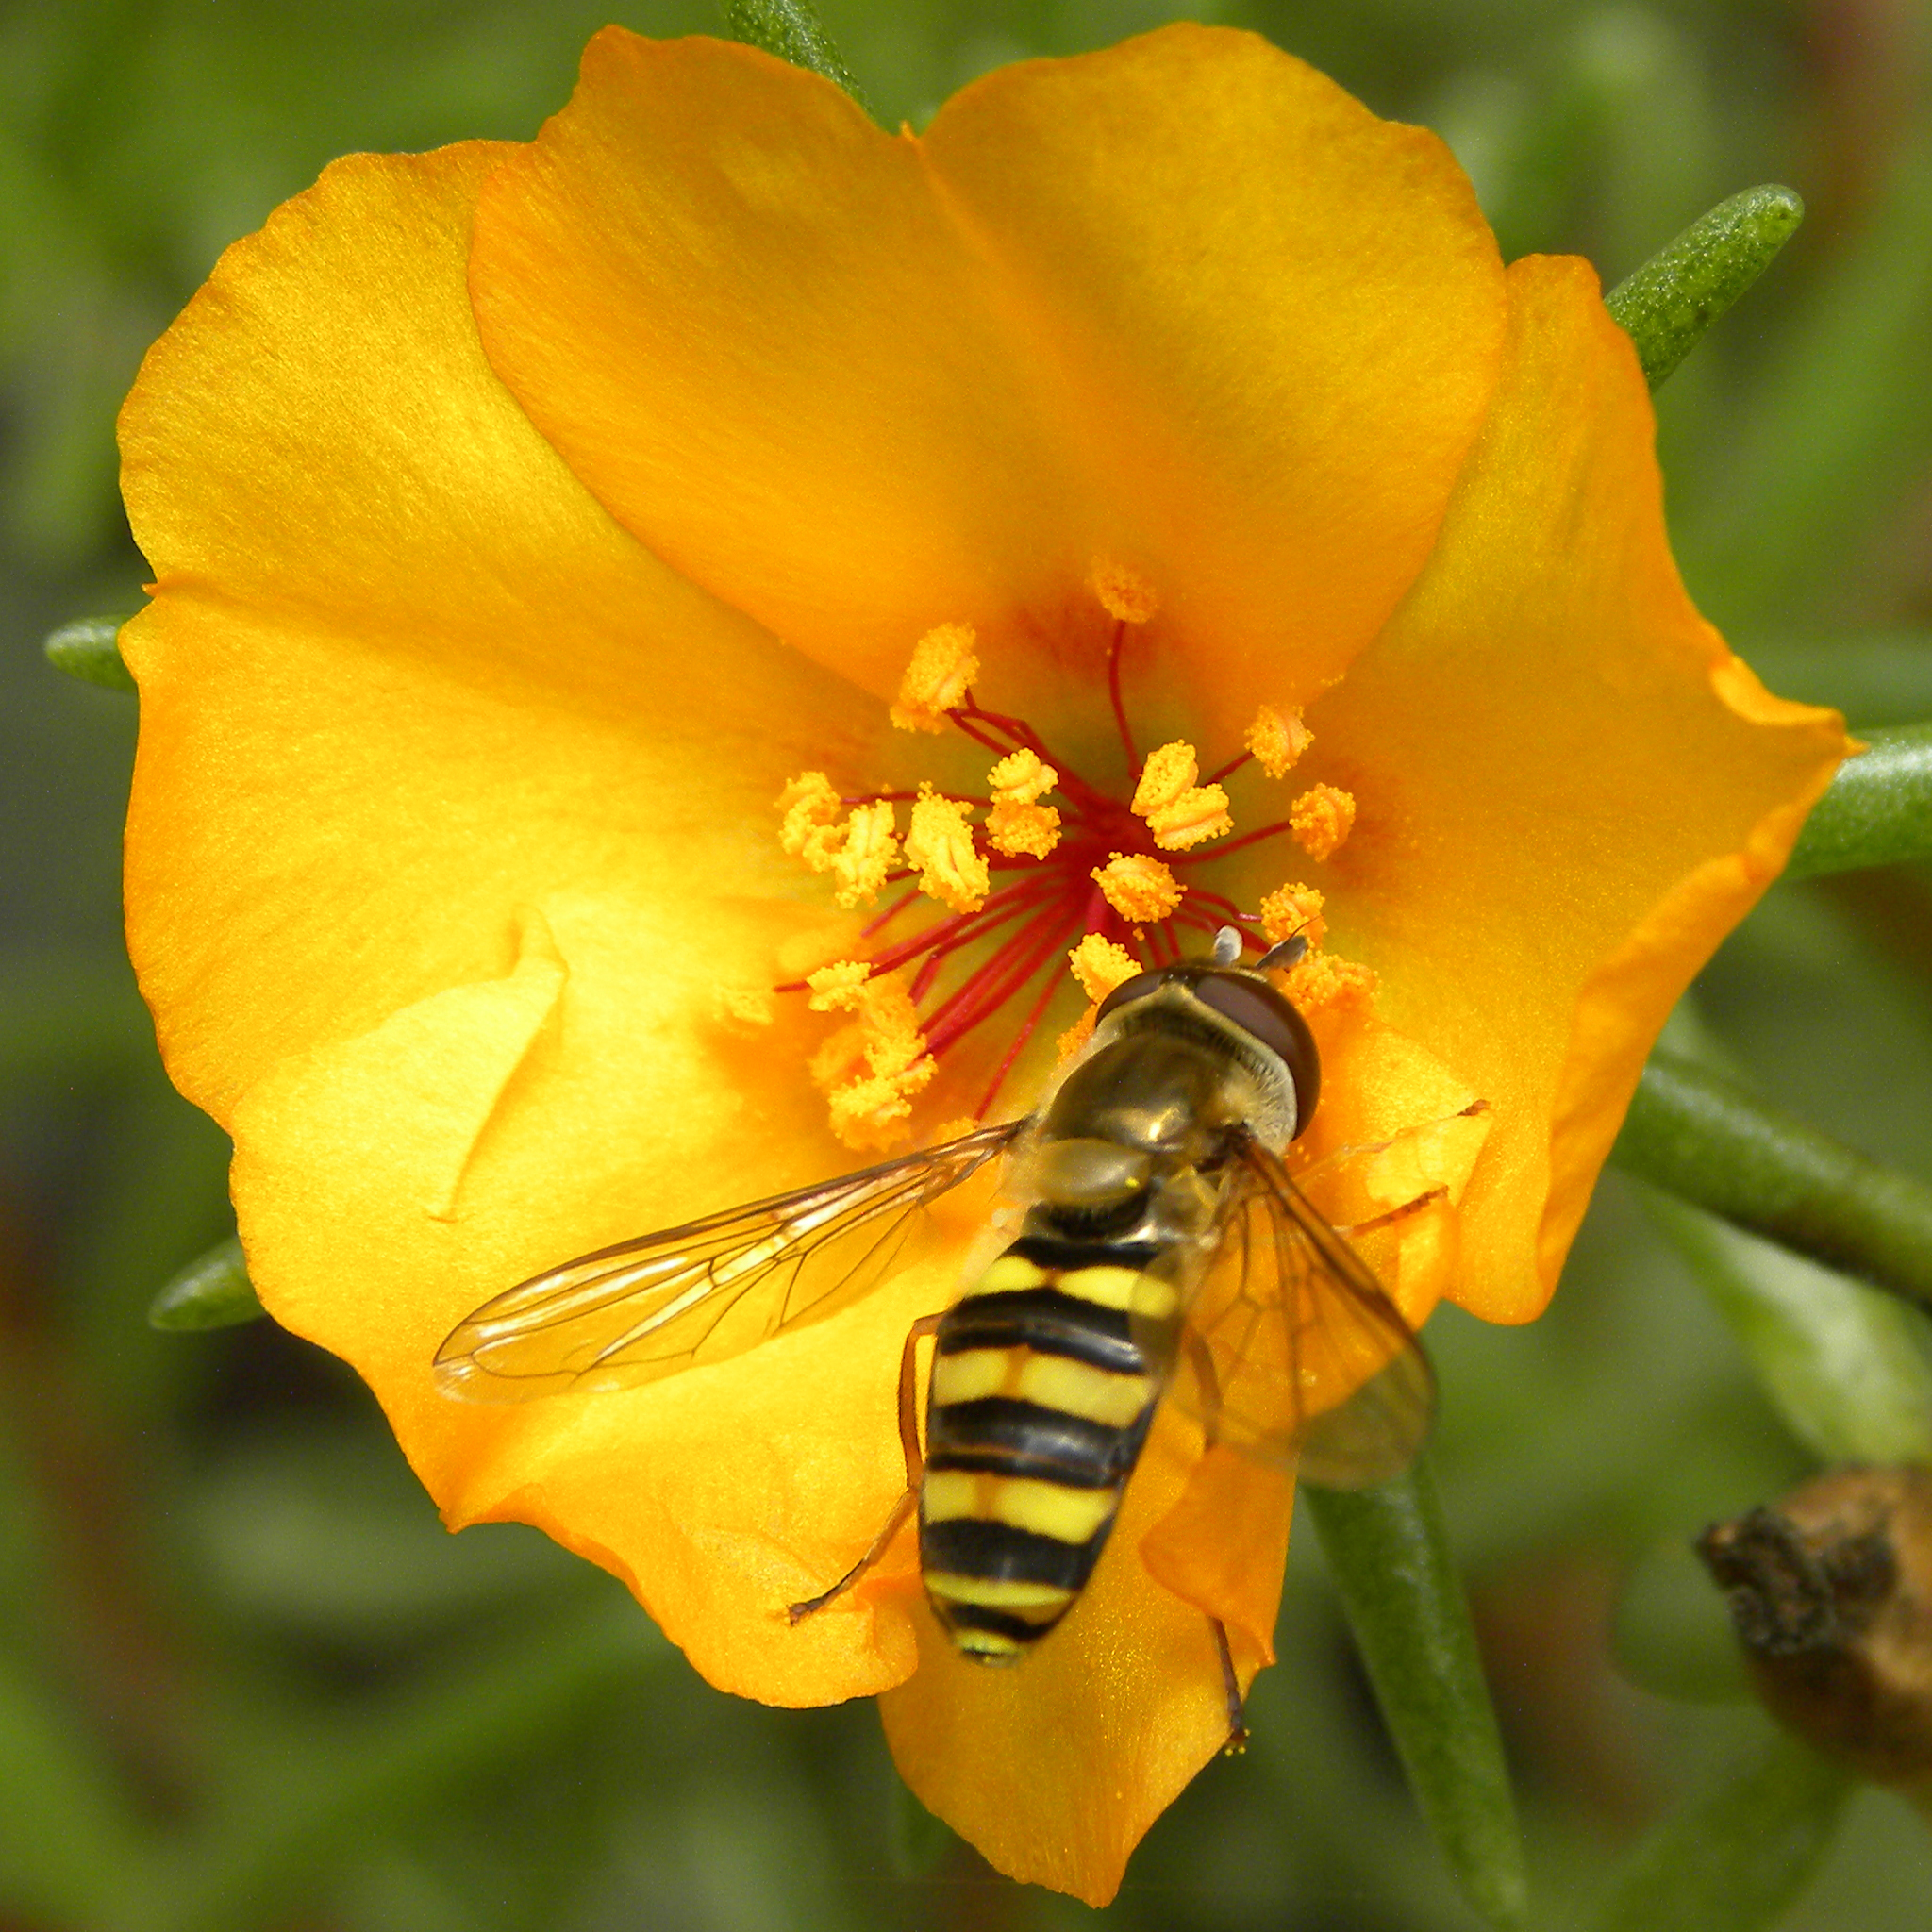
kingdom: Animalia
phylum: Arthropoda
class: Insecta
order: Diptera
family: Syrphidae
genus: Eupeodes
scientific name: Eupeodes
